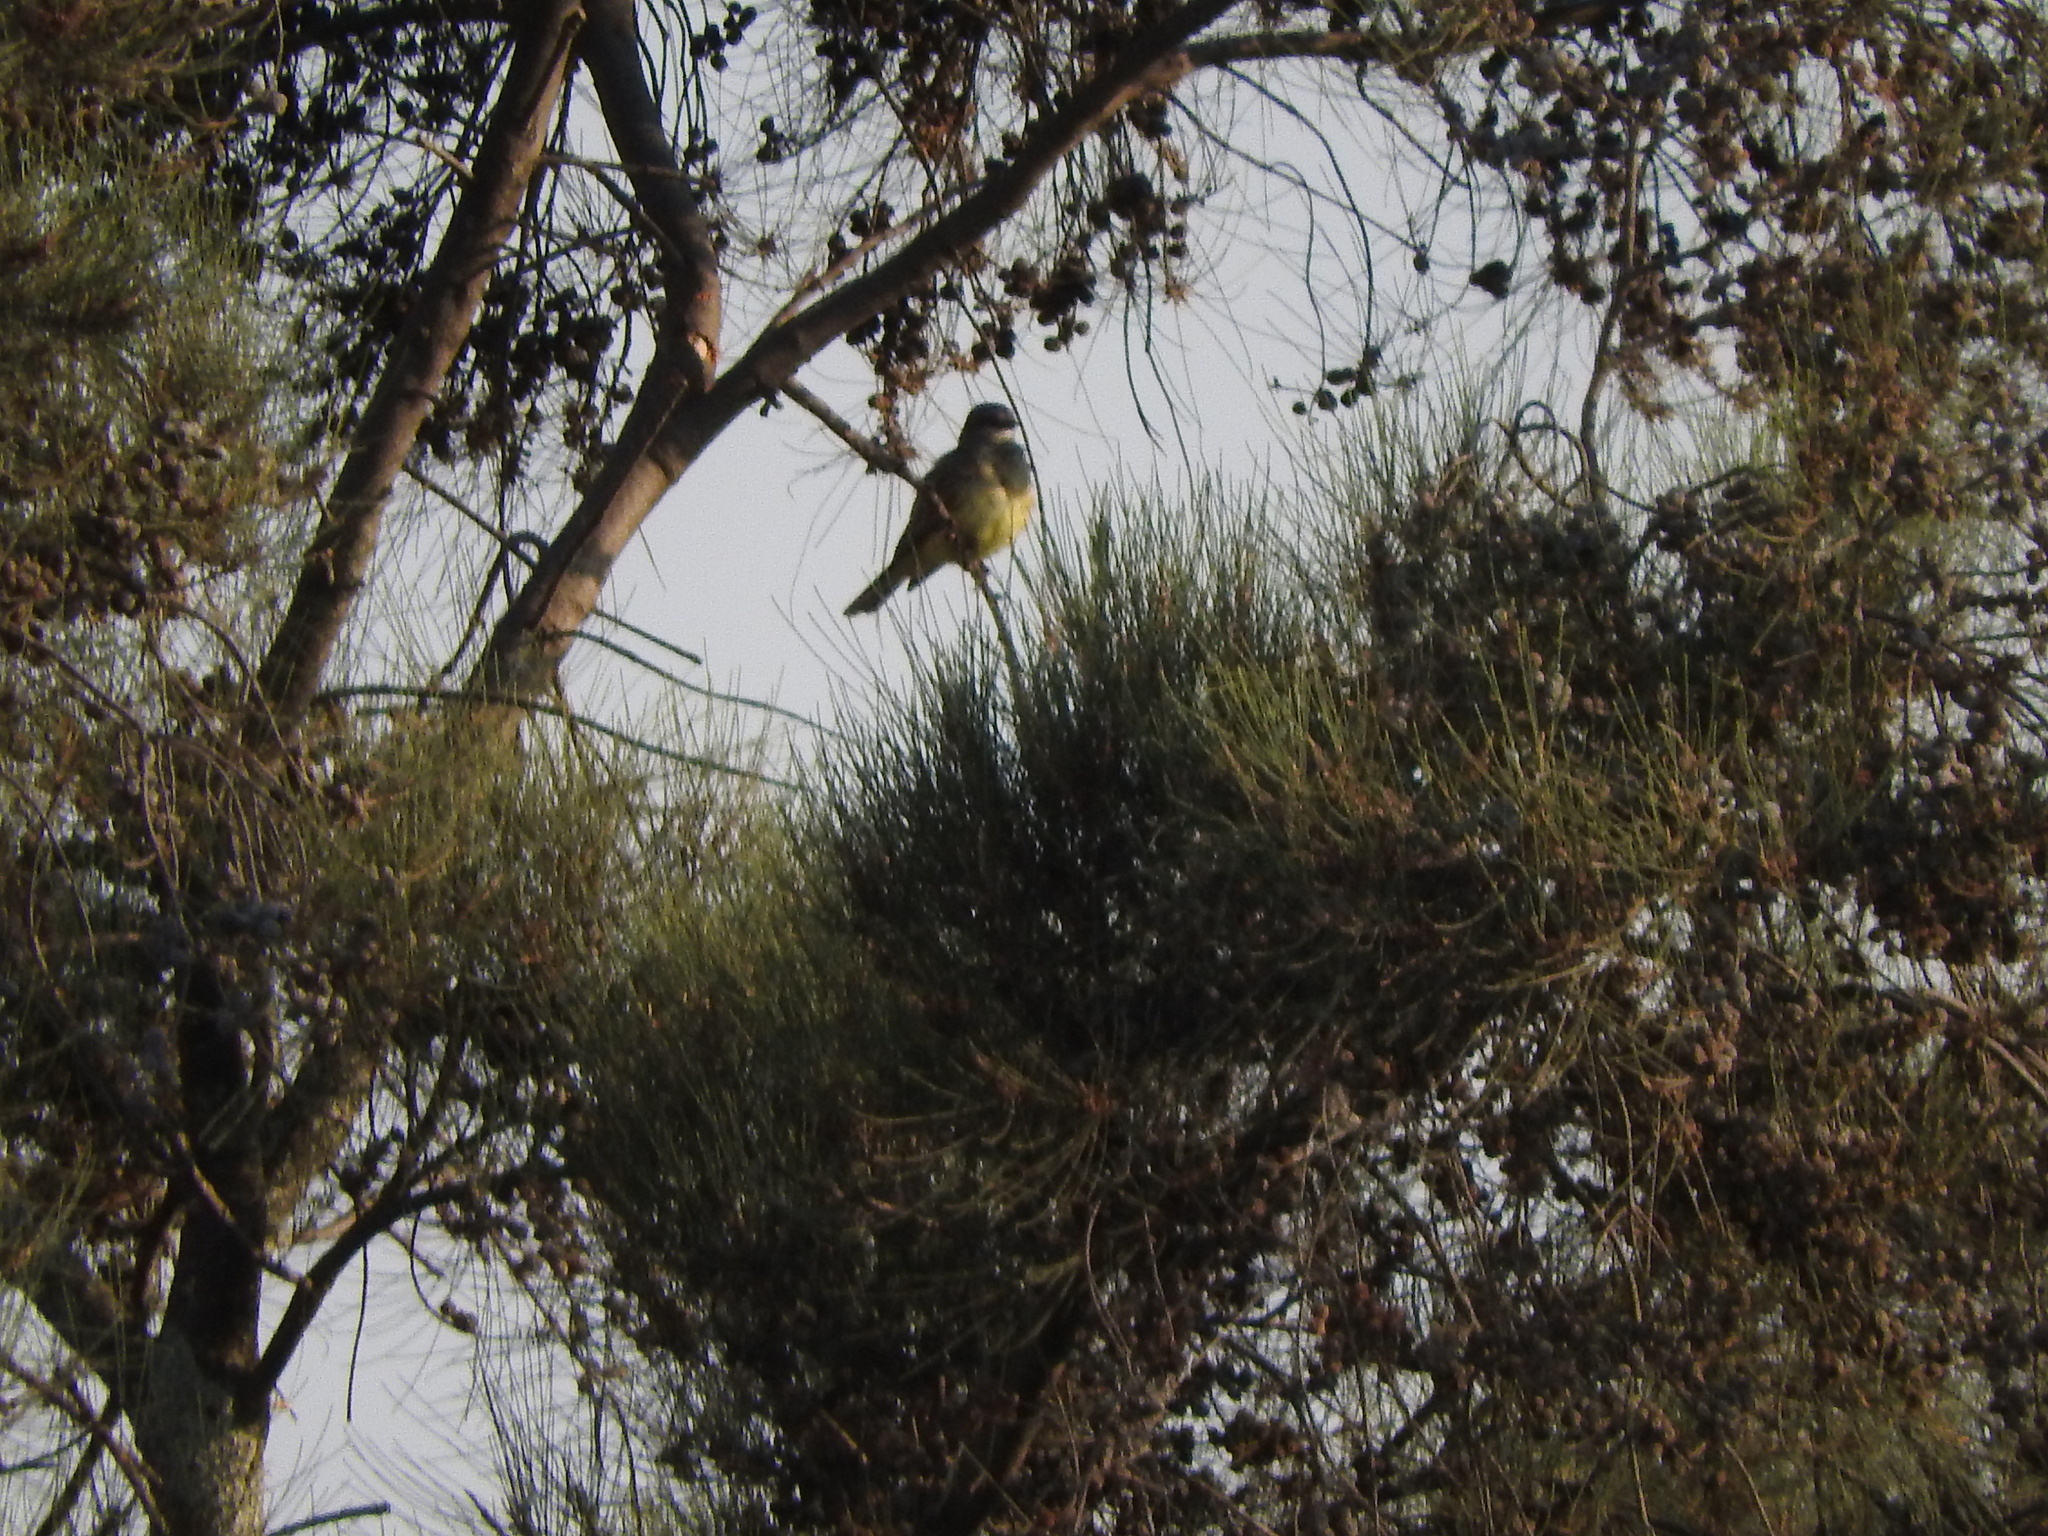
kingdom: Plantae
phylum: Tracheophyta
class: Magnoliopsida
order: Fagales
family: Casuarinaceae
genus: Casuarina
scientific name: Casuarina equisetifolia
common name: Beach sheoak
